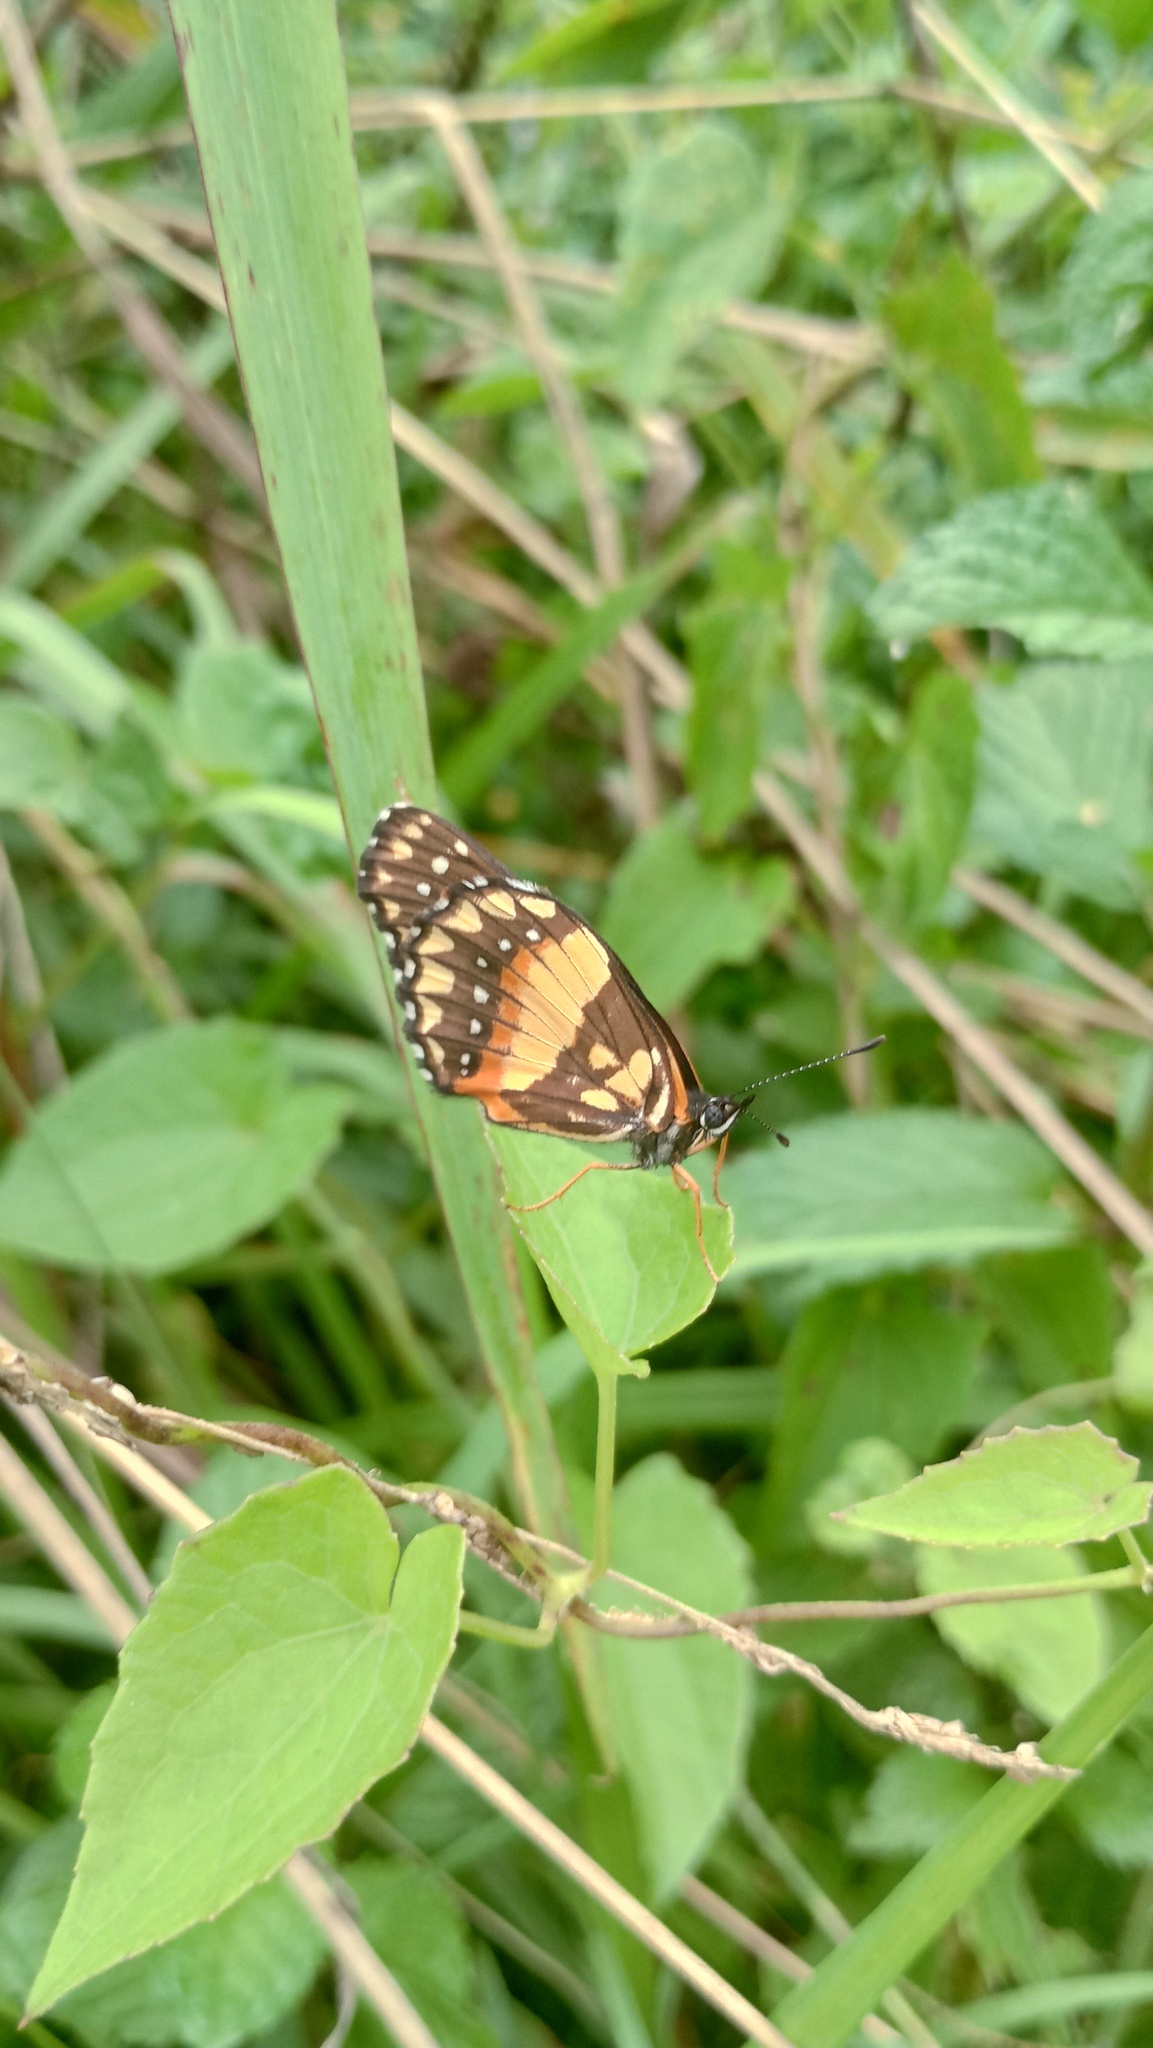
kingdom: Animalia
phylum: Arthropoda
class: Insecta
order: Lepidoptera
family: Nymphalidae
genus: Chlosyne
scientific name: Chlosyne lacinia
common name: Bordered patch
